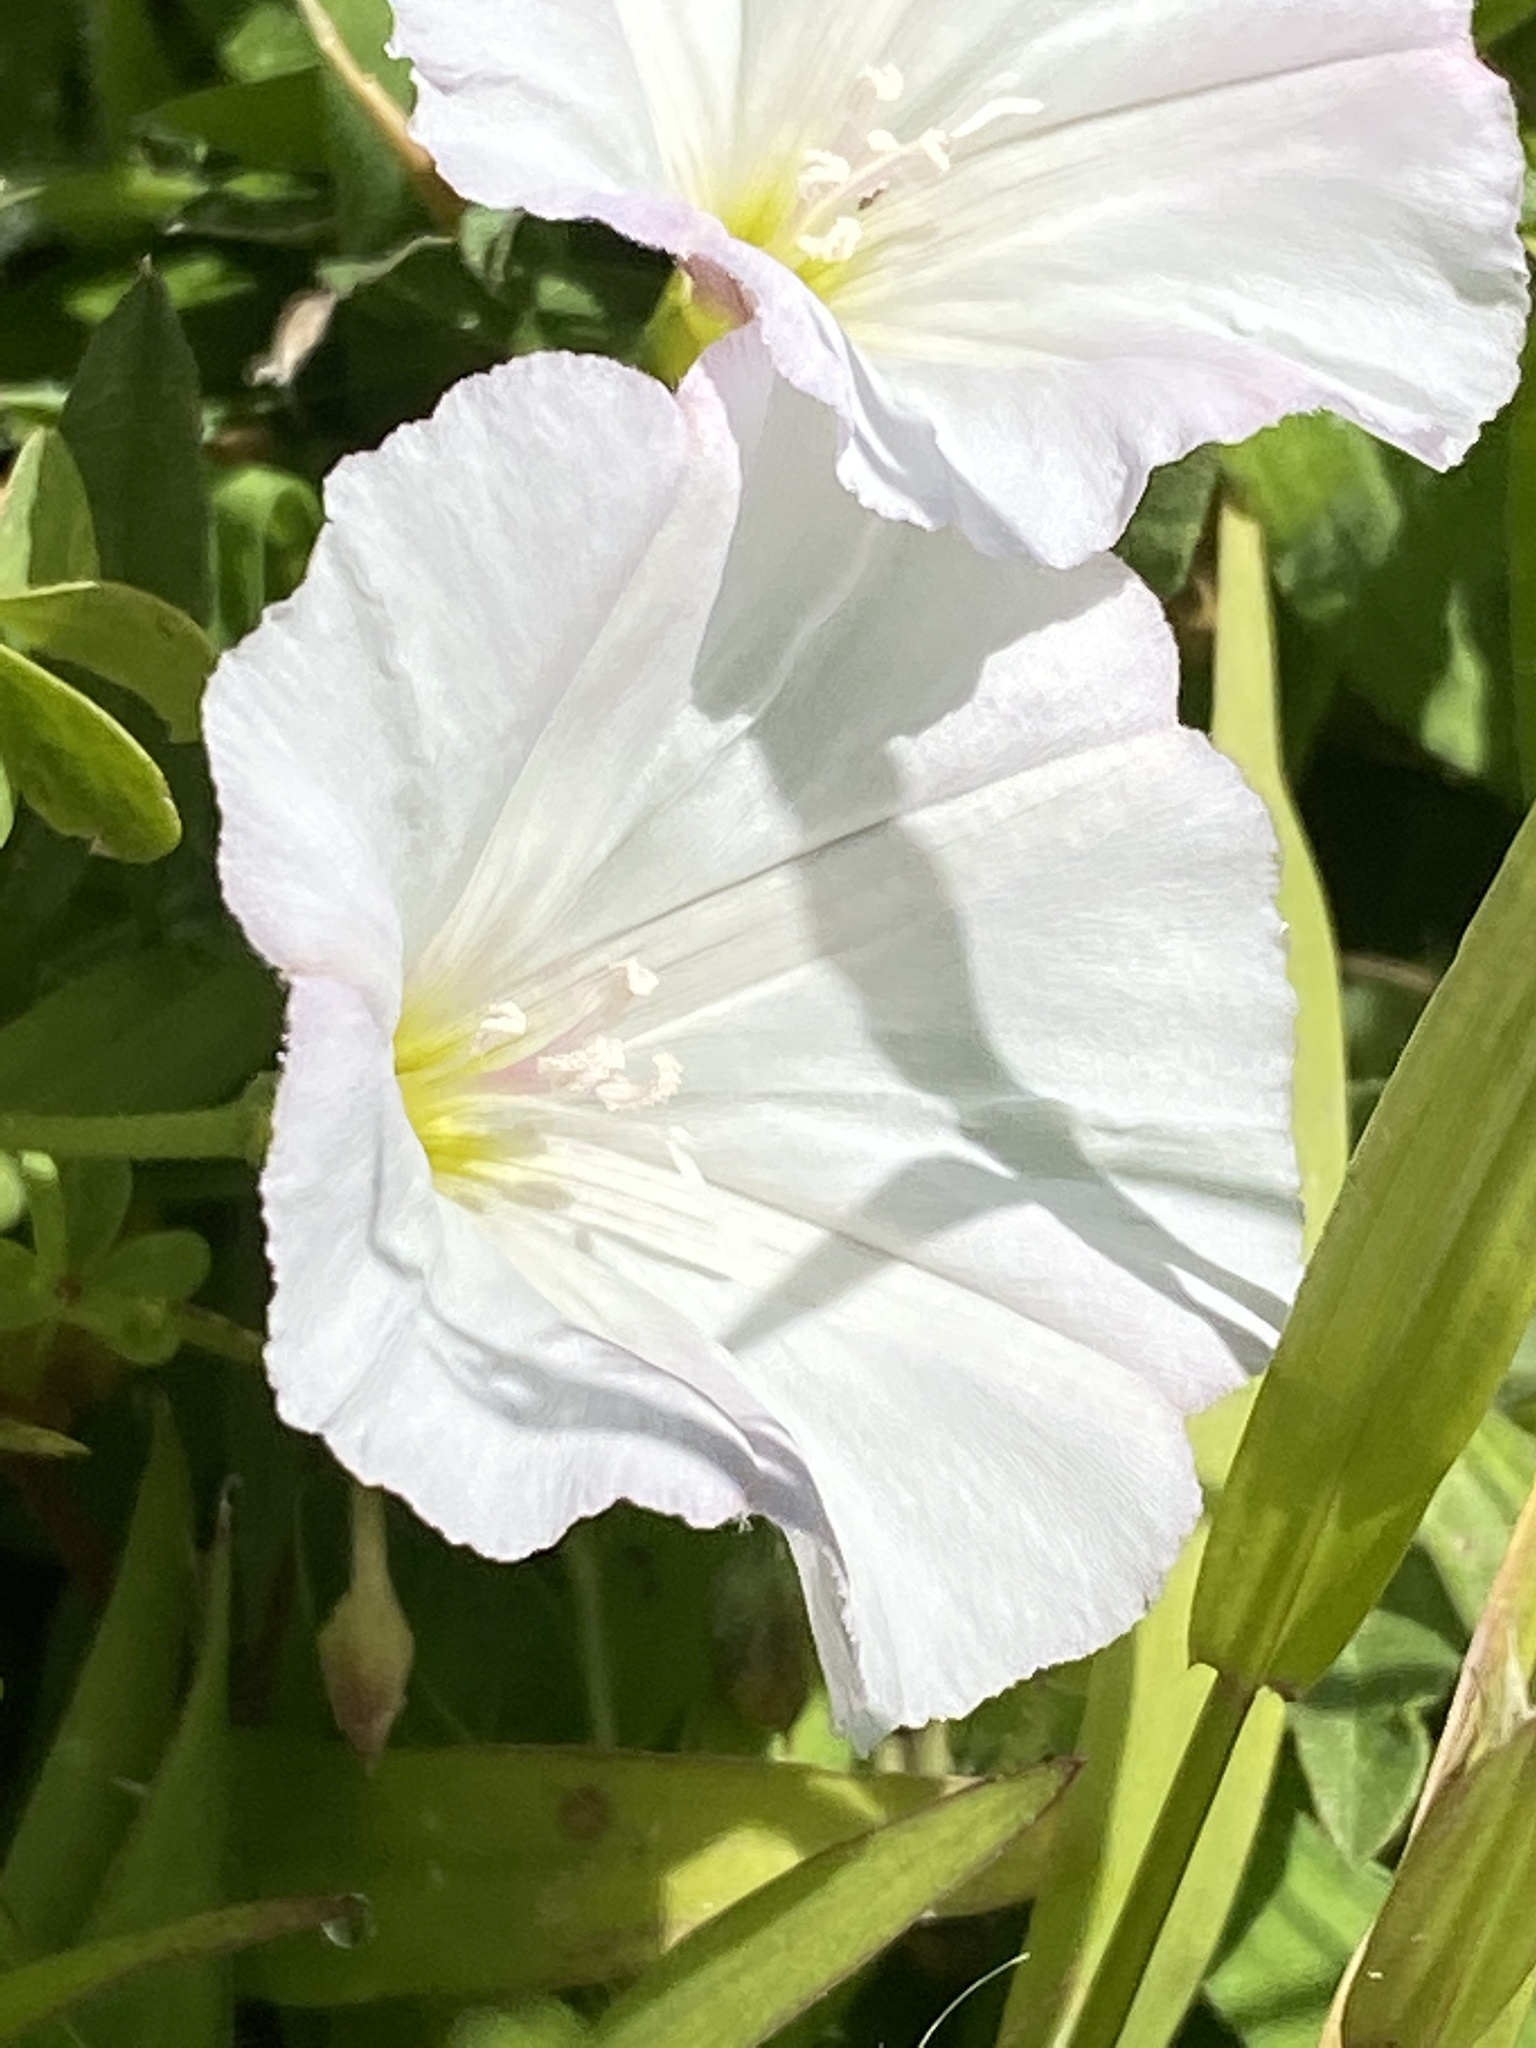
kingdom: Plantae
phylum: Tracheophyta
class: Magnoliopsida
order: Solanales
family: Convolvulaceae
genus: Convolvulus
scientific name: Convolvulus arvensis
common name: Field bindweed
